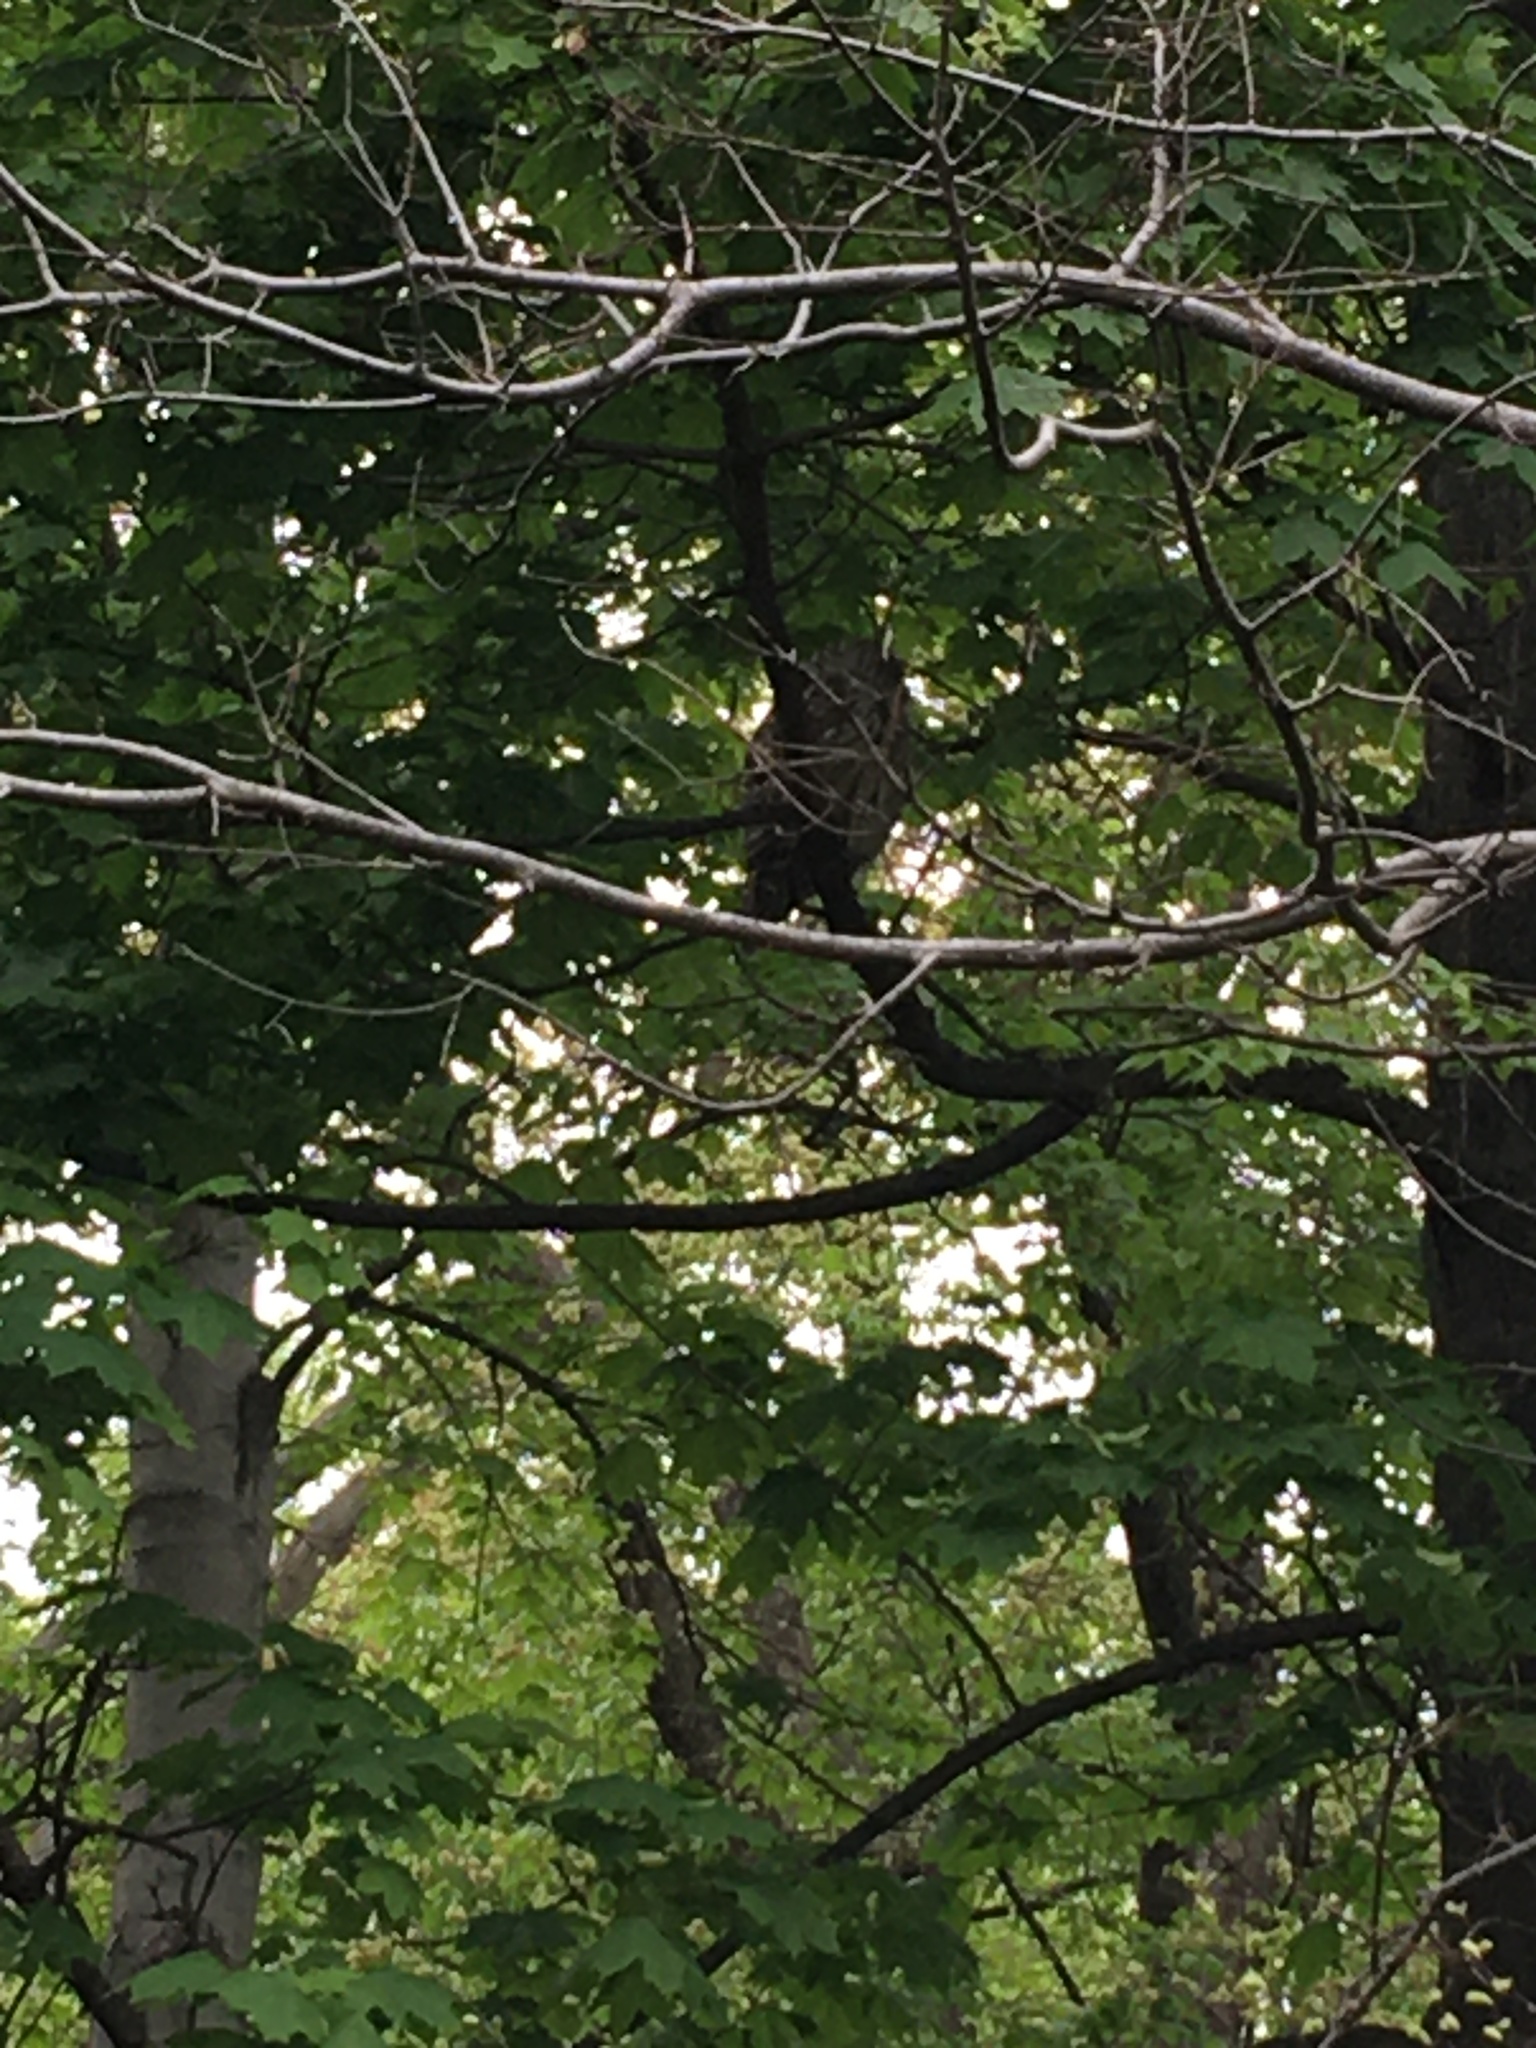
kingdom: Animalia
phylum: Chordata
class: Aves
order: Strigiformes
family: Strigidae
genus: Strix
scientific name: Strix varia
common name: Barred owl
